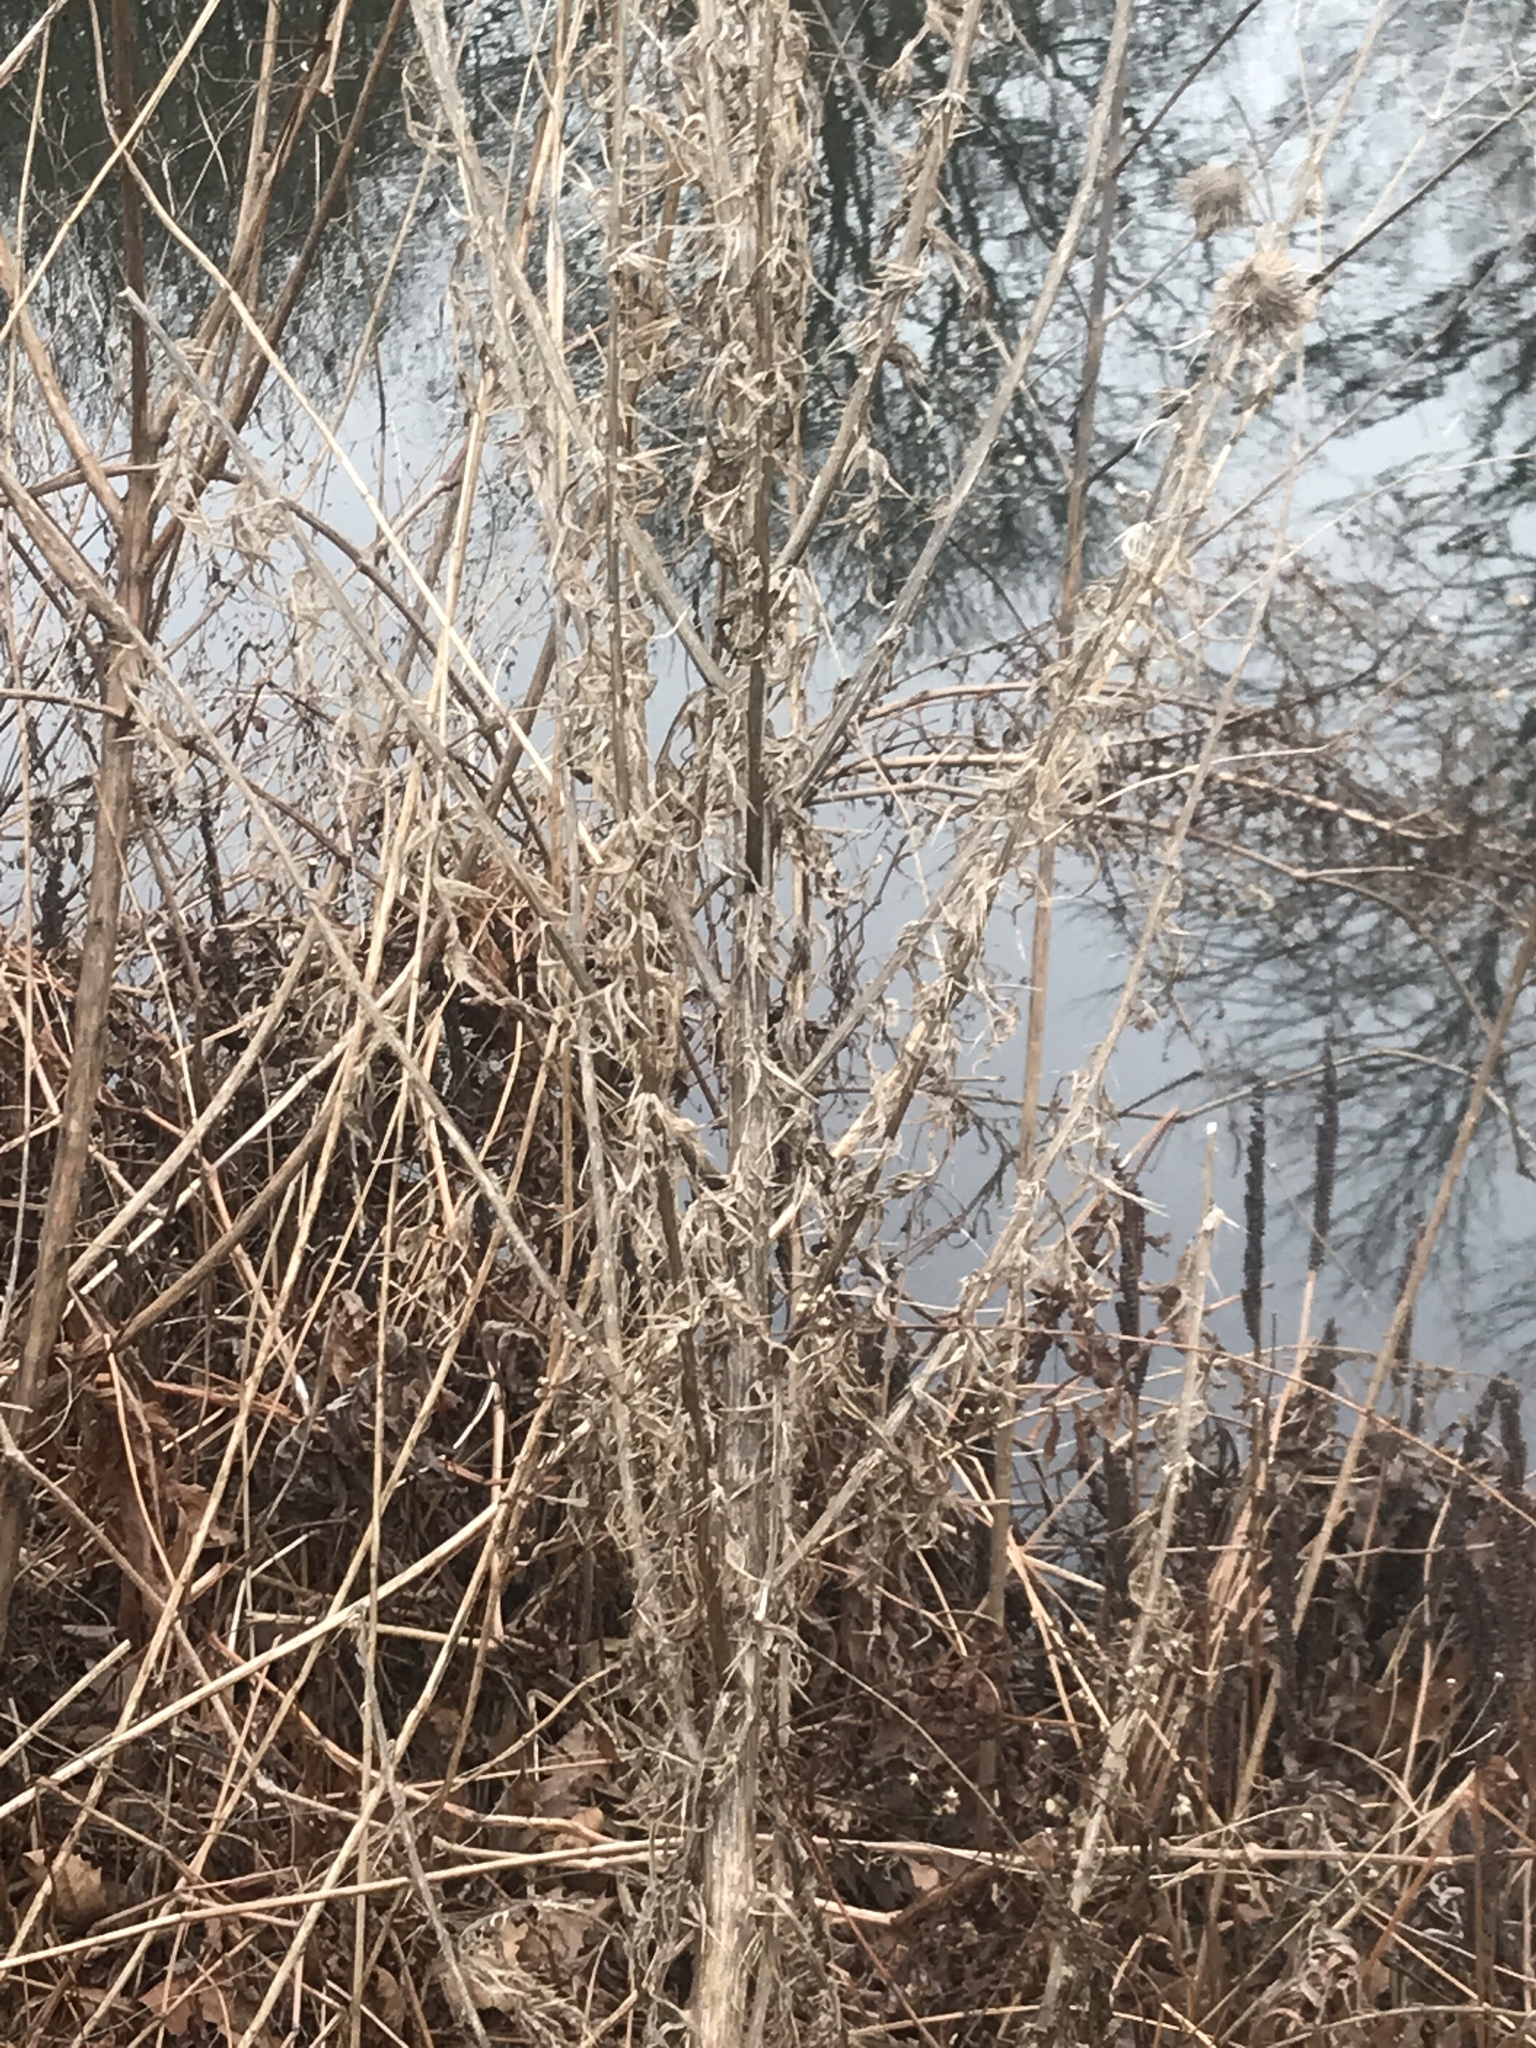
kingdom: Plantae
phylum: Tracheophyta
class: Magnoliopsida
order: Asterales
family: Asteraceae
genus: Cirsium
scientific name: Cirsium vulgare
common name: Bull thistle
